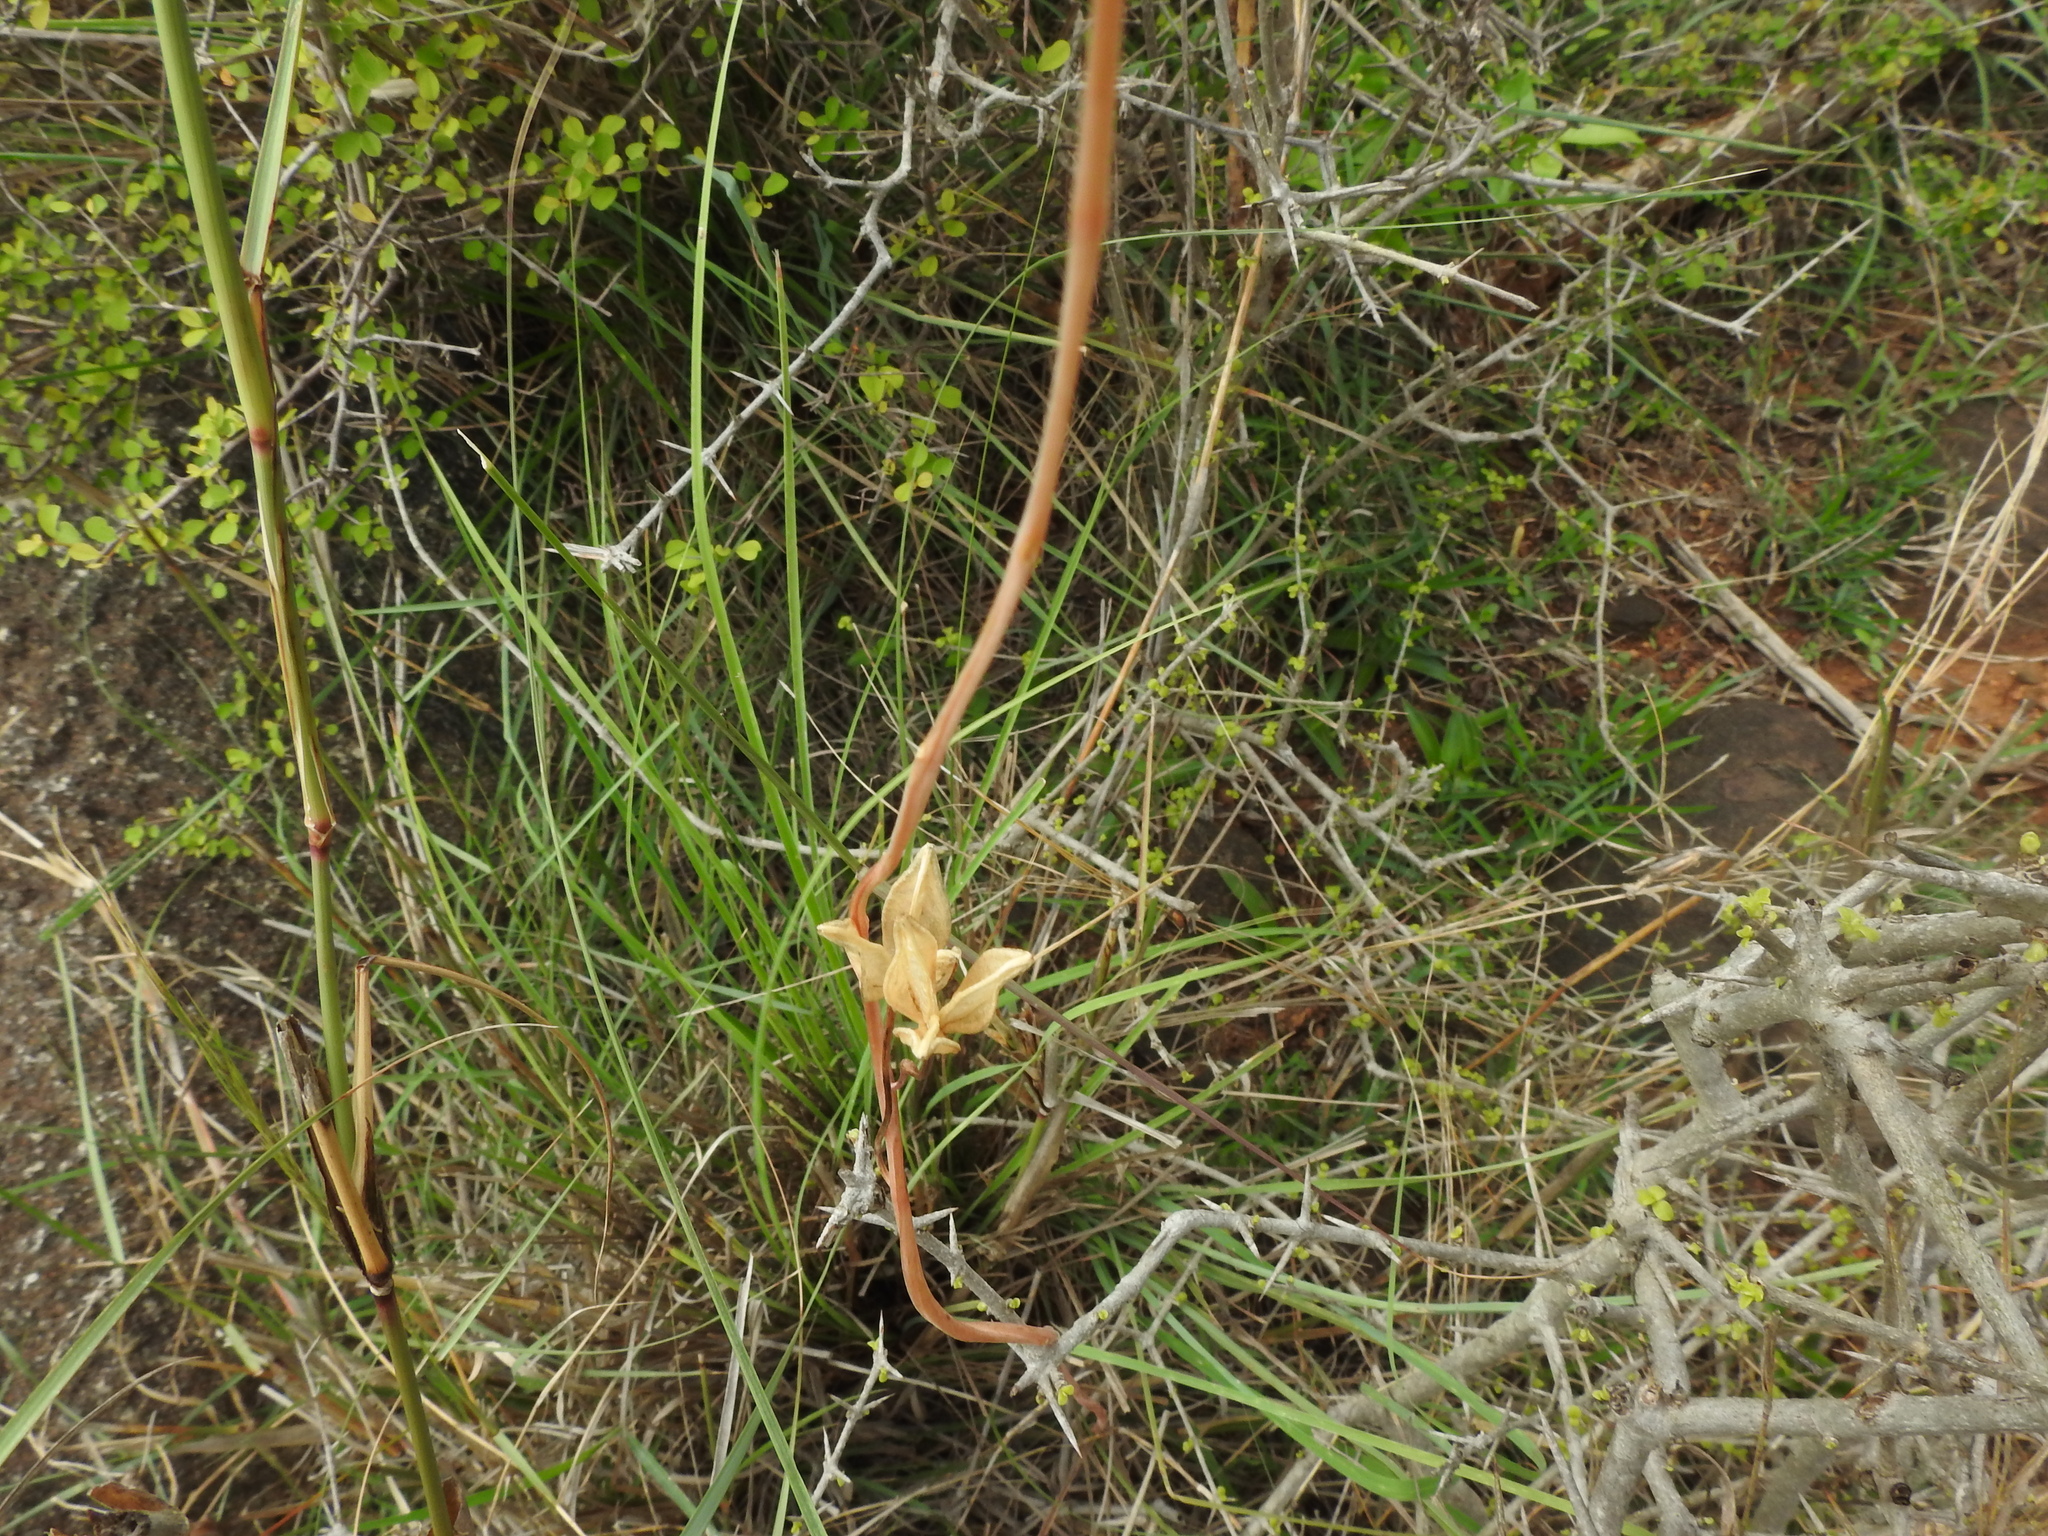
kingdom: Plantae
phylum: Tracheophyta
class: Liliopsida
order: Asparagales
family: Asparagaceae
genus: Drimia
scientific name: Drimia indica
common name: Indian-squill
